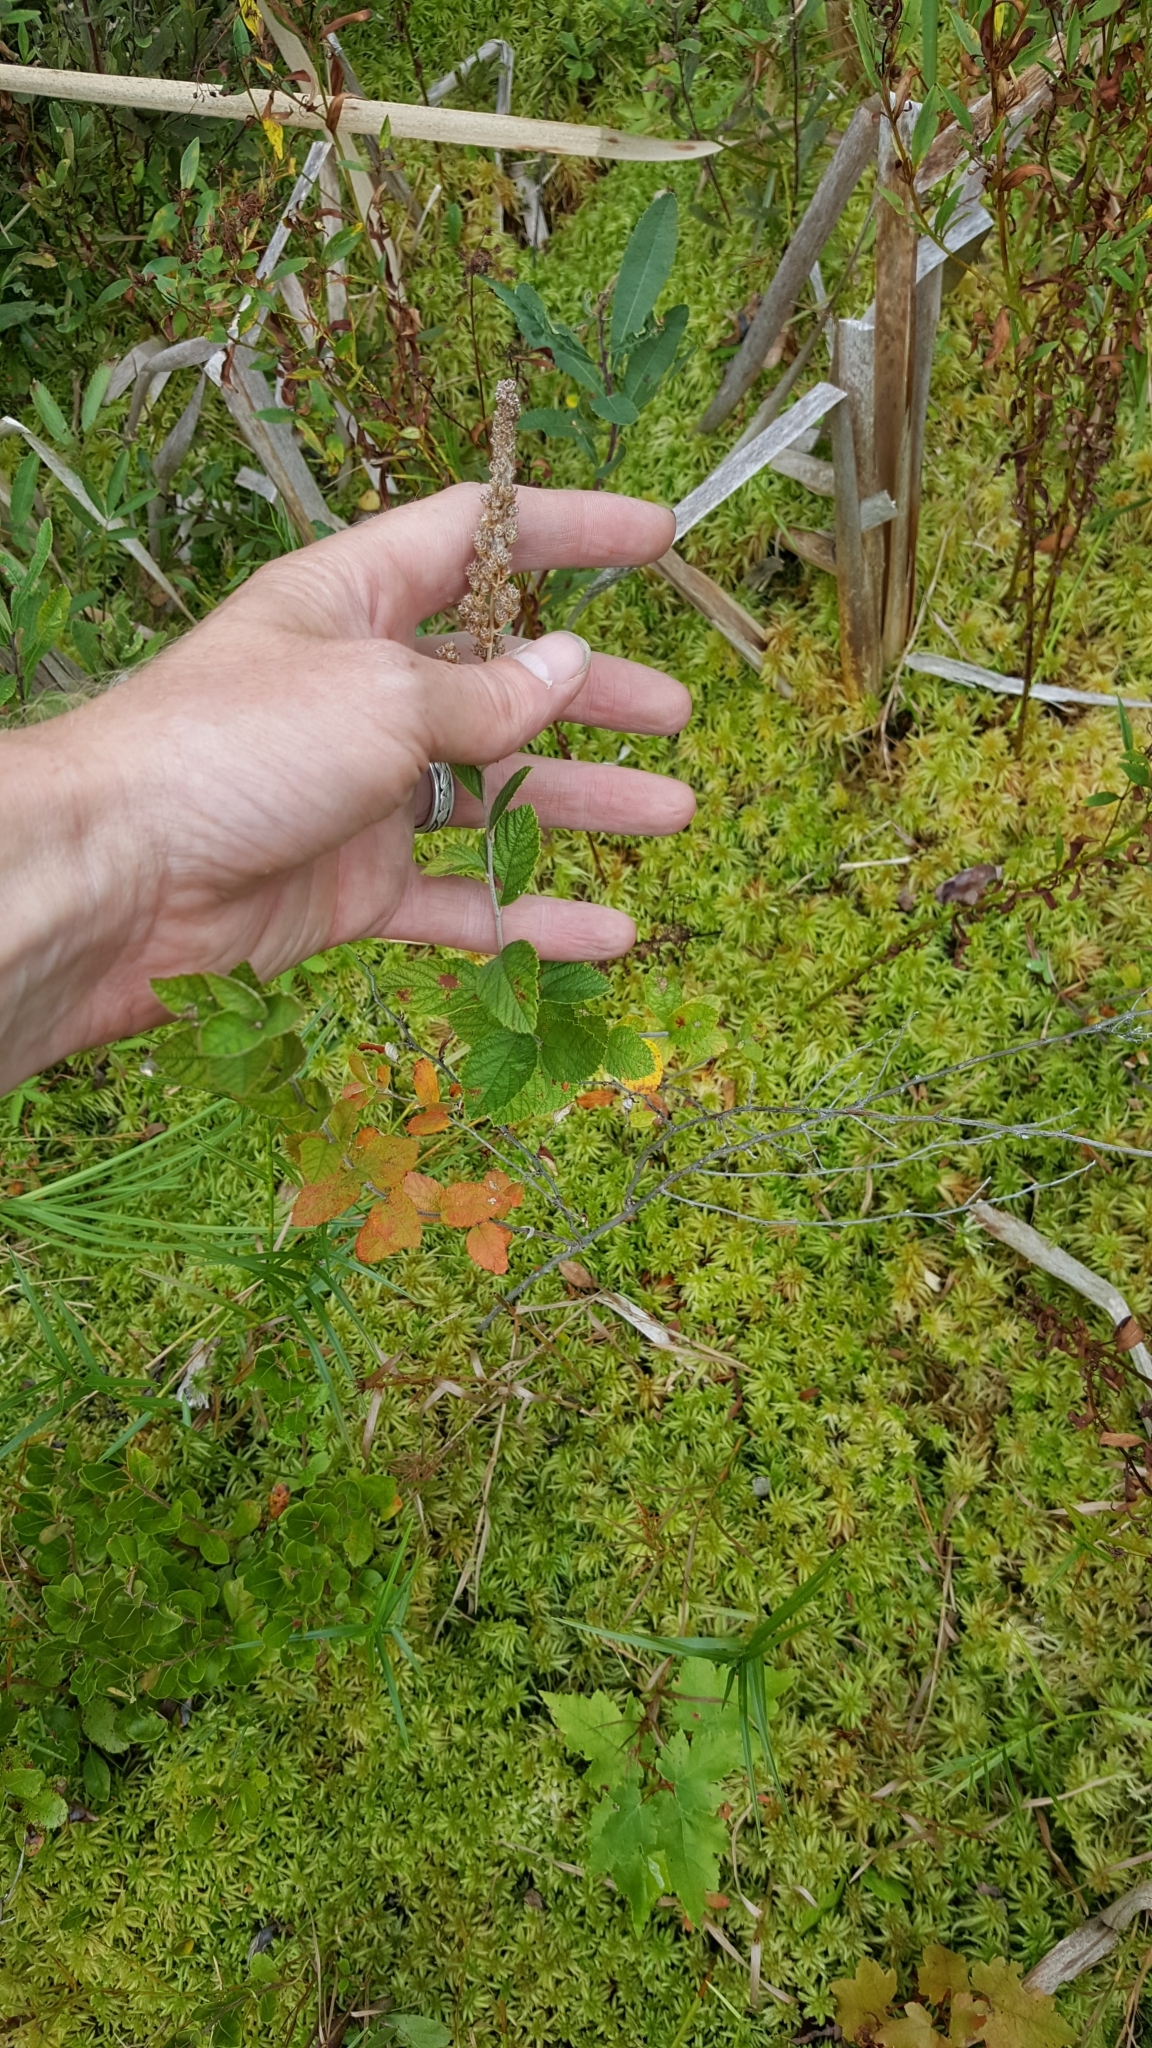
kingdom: Plantae
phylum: Tracheophyta
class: Magnoliopsida
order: Rosales
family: Rosaceae
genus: Spiraea
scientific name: Spiraea tomentosa
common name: Hardhack
